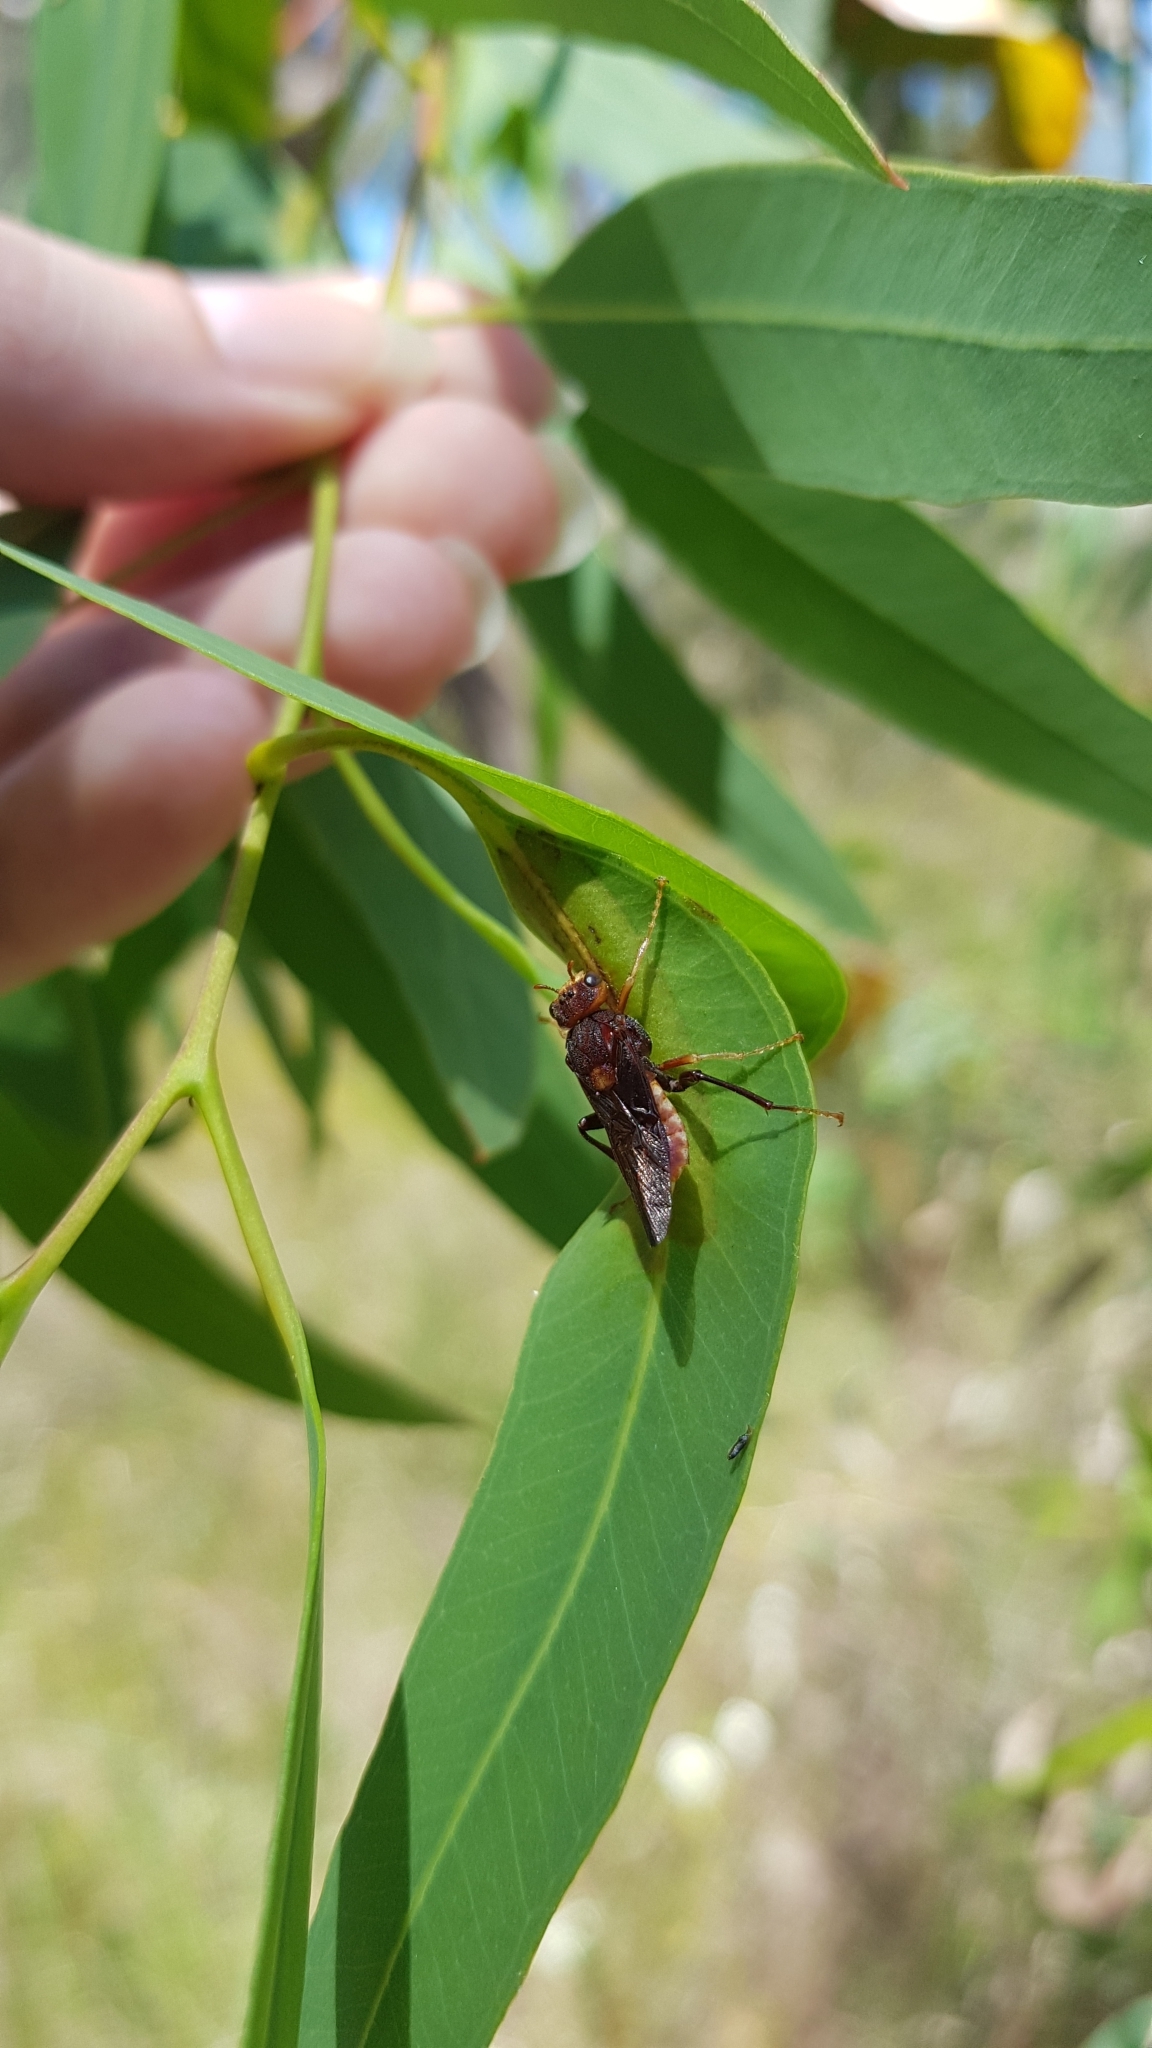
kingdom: Animalia
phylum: Arthropoda
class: Insecta
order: Hymenoptera
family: Pergidae
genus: Pseudoperga
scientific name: Pseudoperga
